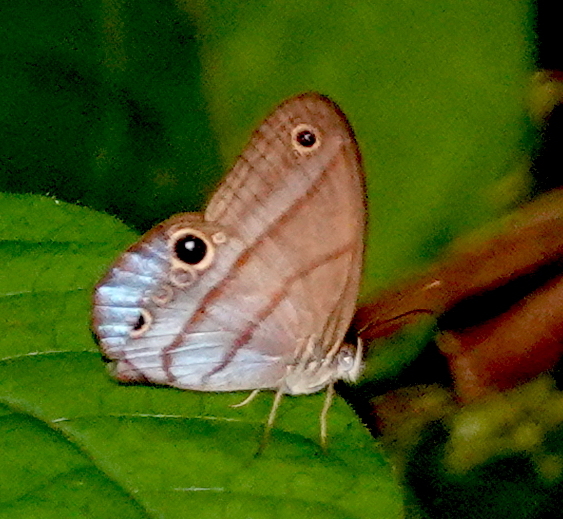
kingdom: Animalia
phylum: Arthropoda
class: Insecta
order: Lepidoptera
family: Nymphalidae
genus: Amiga
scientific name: Amiga arnaca
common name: Blue-topped satyr
